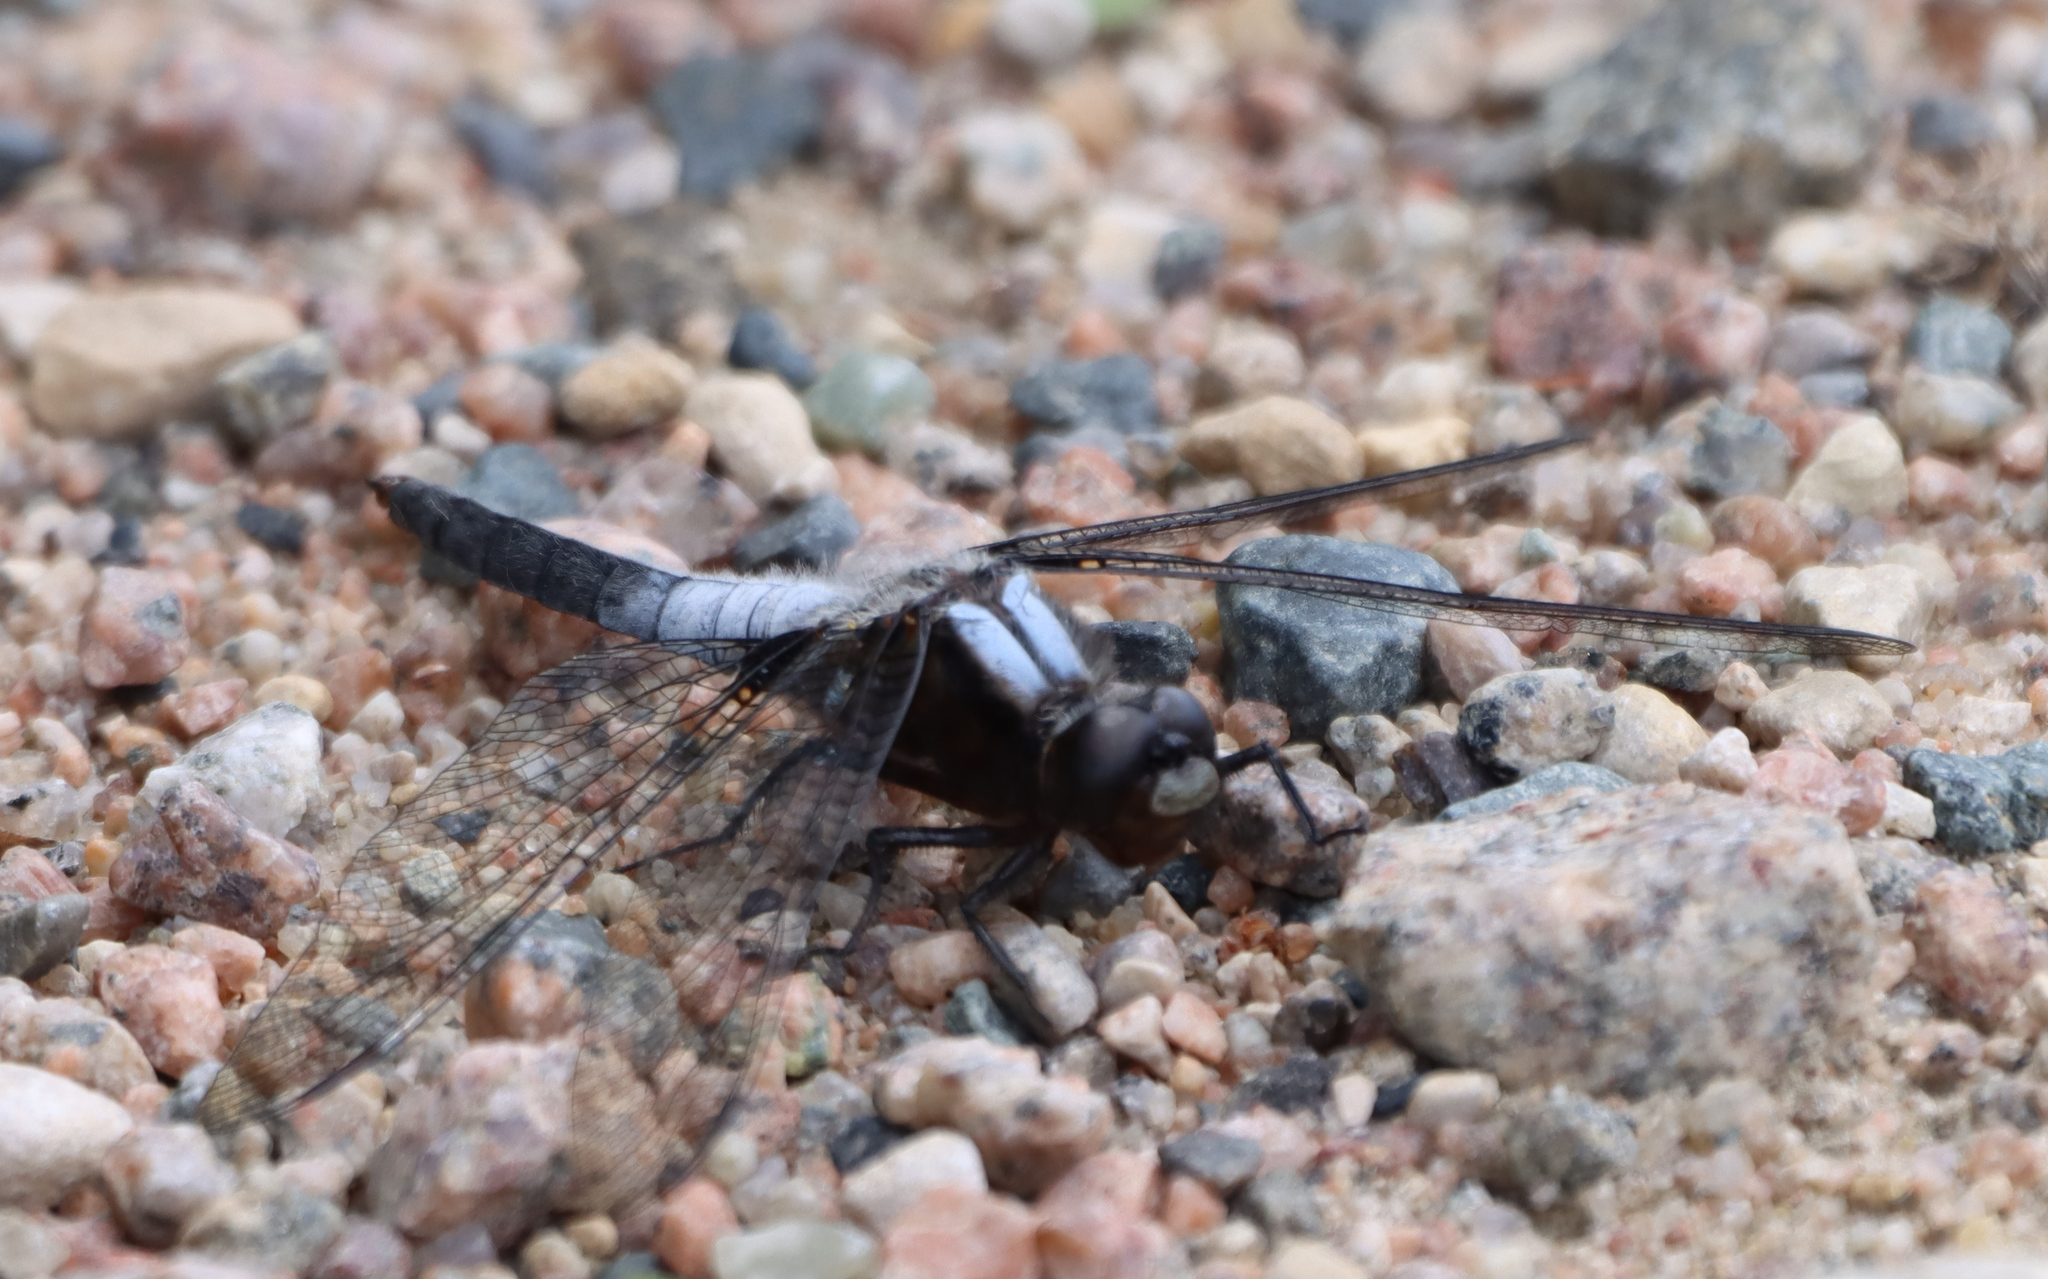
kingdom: Animalia
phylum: Arthropoda
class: Insecta
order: Odonata
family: Libellulidae
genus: Ladona
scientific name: Ladona julia
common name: Chalk-fronted corporal
